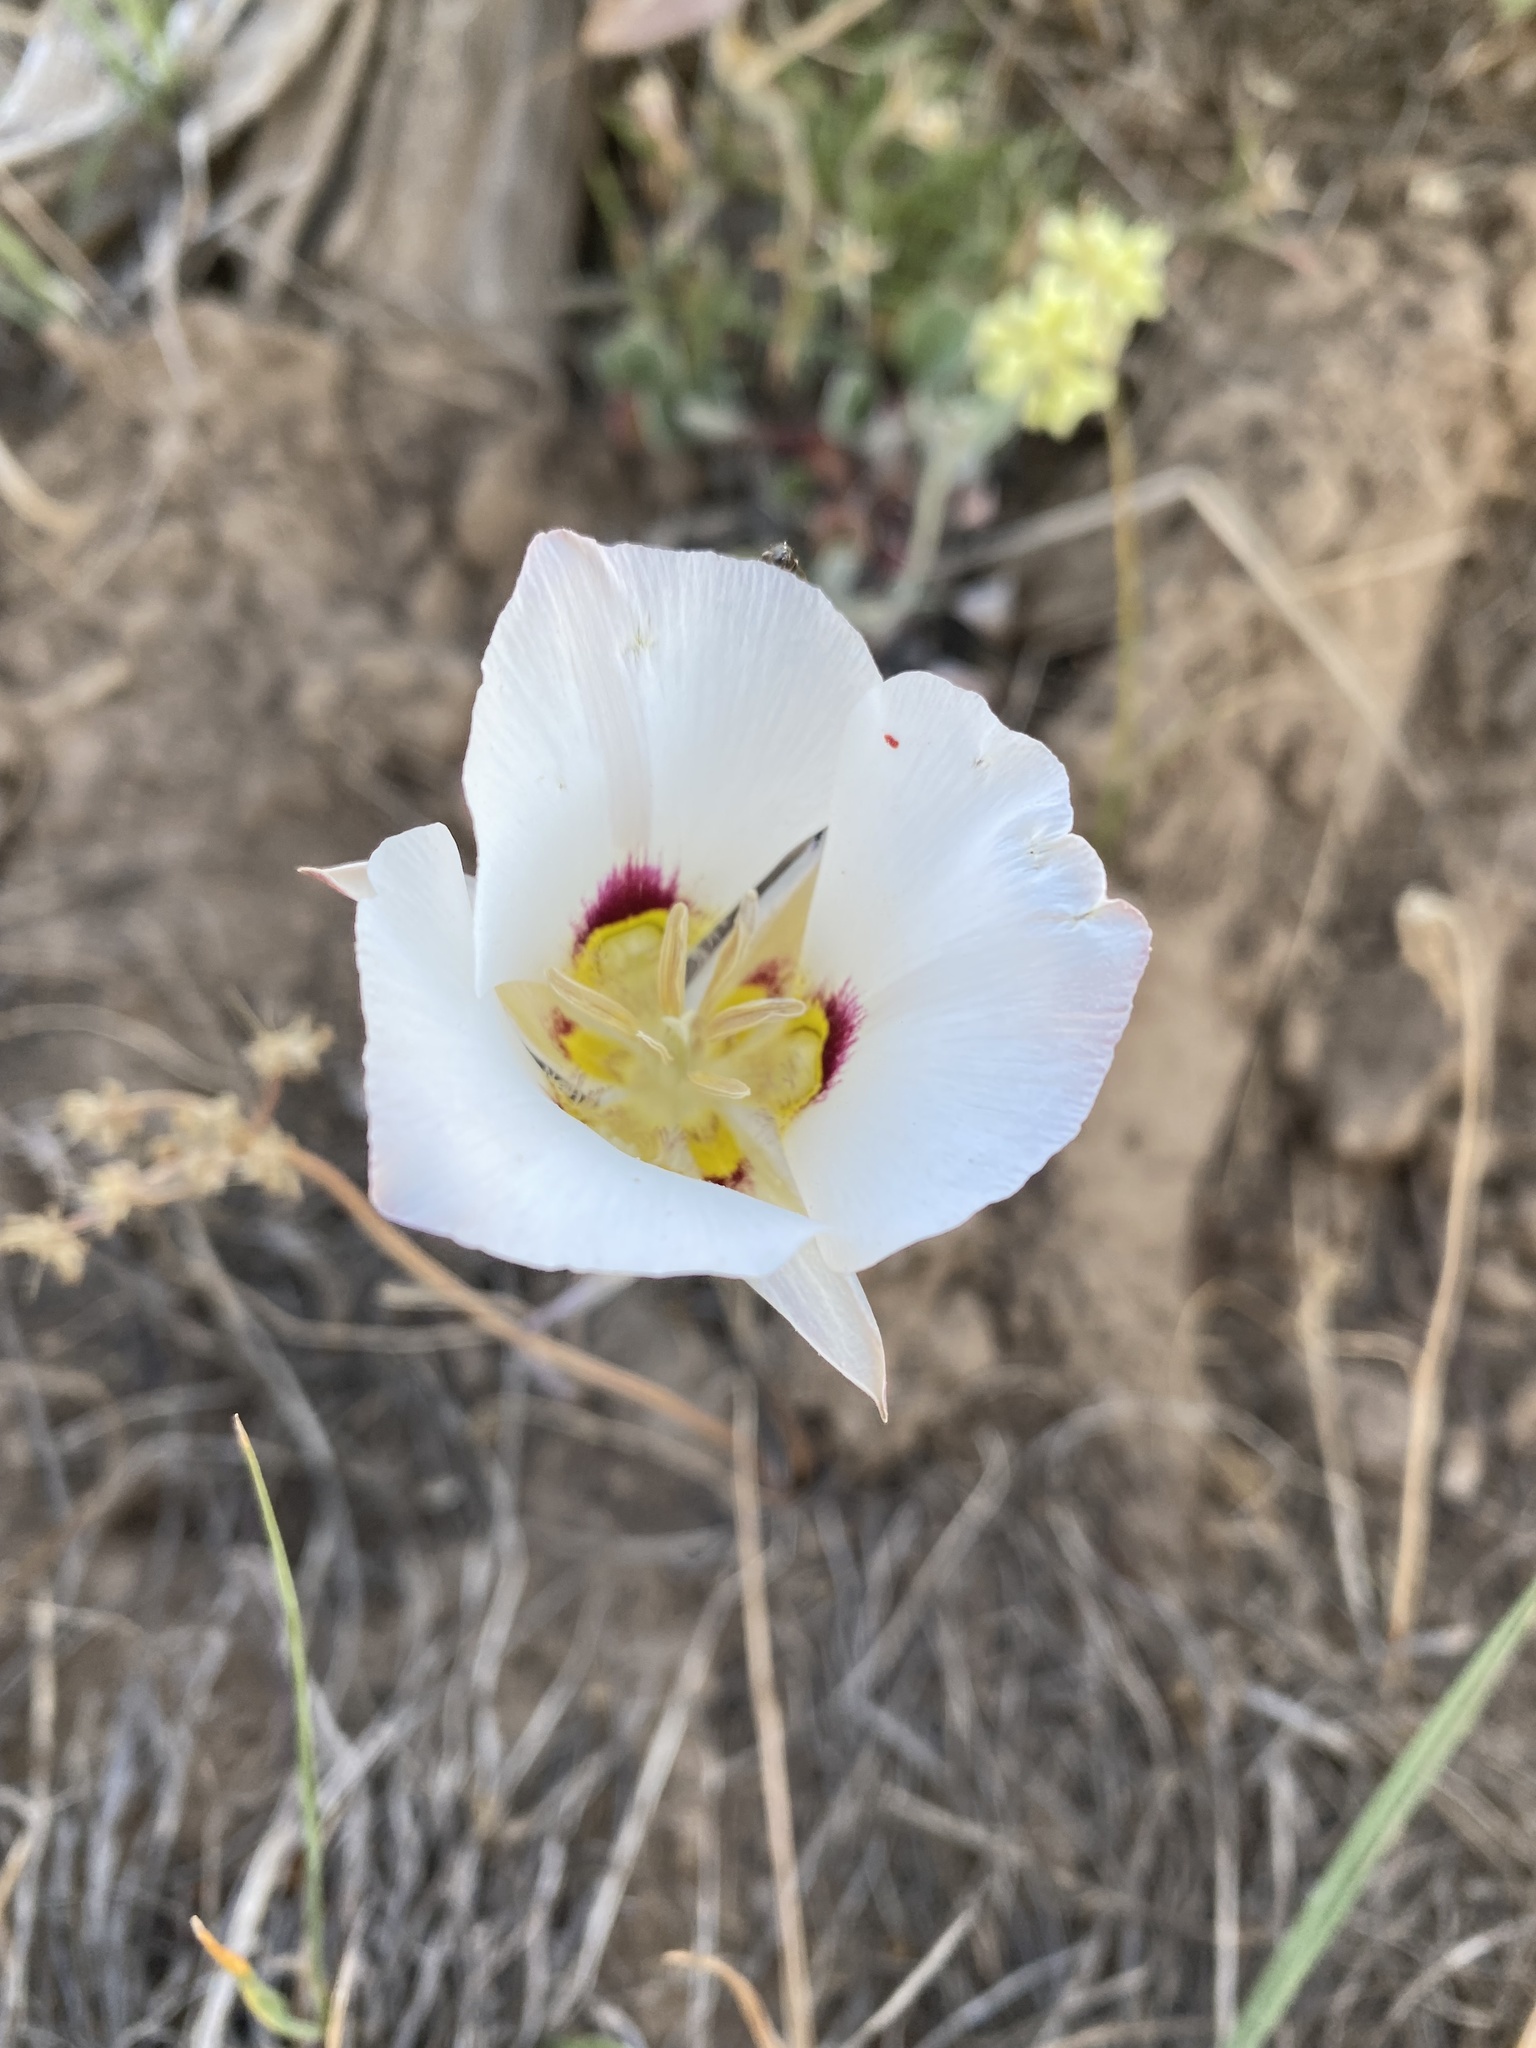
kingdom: Plantae
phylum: Tracheophyta
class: Liliopsida
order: Liliales
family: Liliaceae
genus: Calochortus
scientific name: Calochortus nuttallii
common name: Sego-lily
